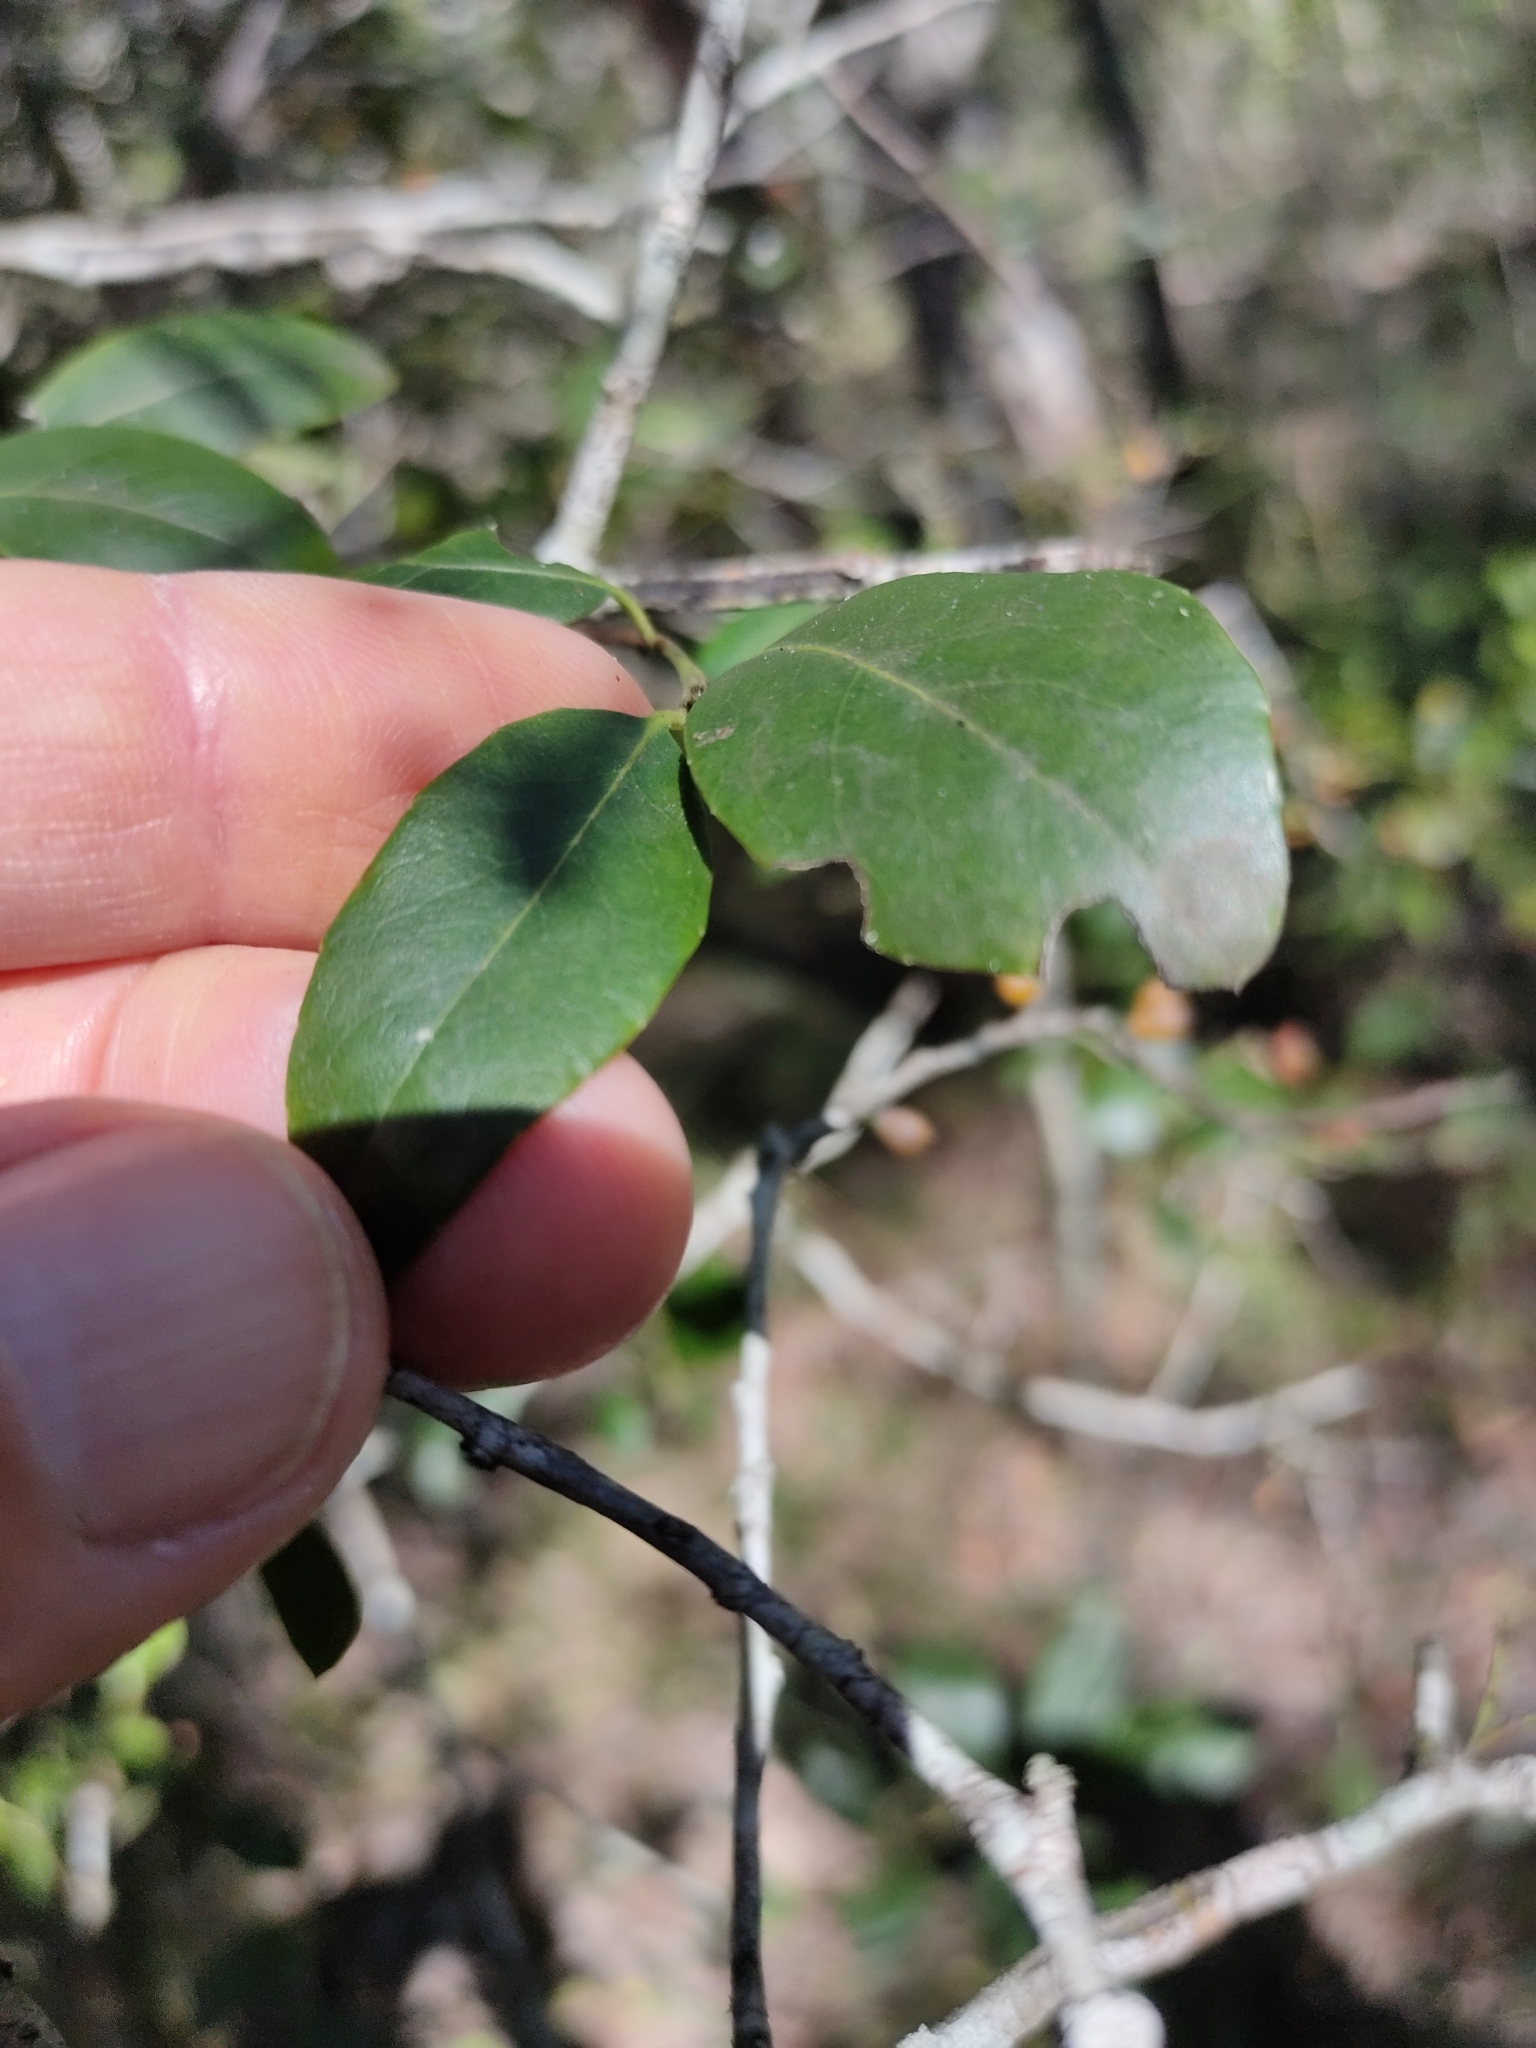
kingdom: Plantae
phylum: Tracheophyta
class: Magnoliopsida
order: Celastrales
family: Celastraceae
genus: Denhamia
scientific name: Denhamia bilocularis
